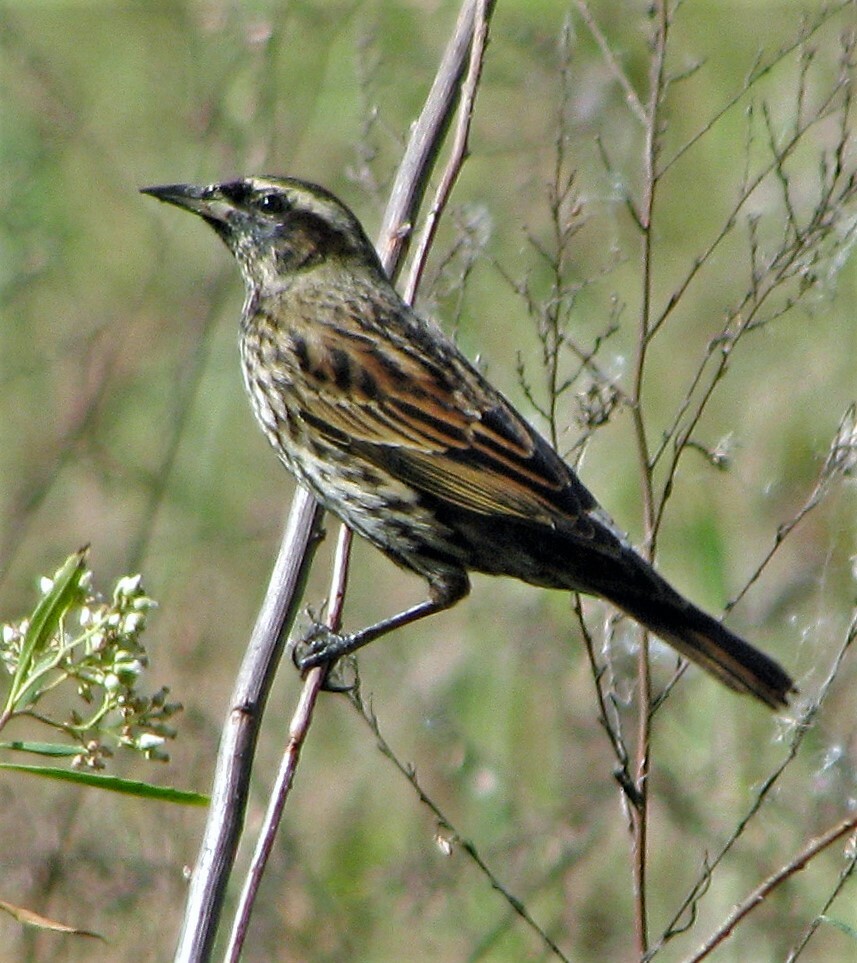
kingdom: Animalia
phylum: Chordata
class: Aves
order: Passeriformes
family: Icteridae
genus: Agelasticus
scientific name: Agelasticus thilius
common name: Yellow-winged blackbird
